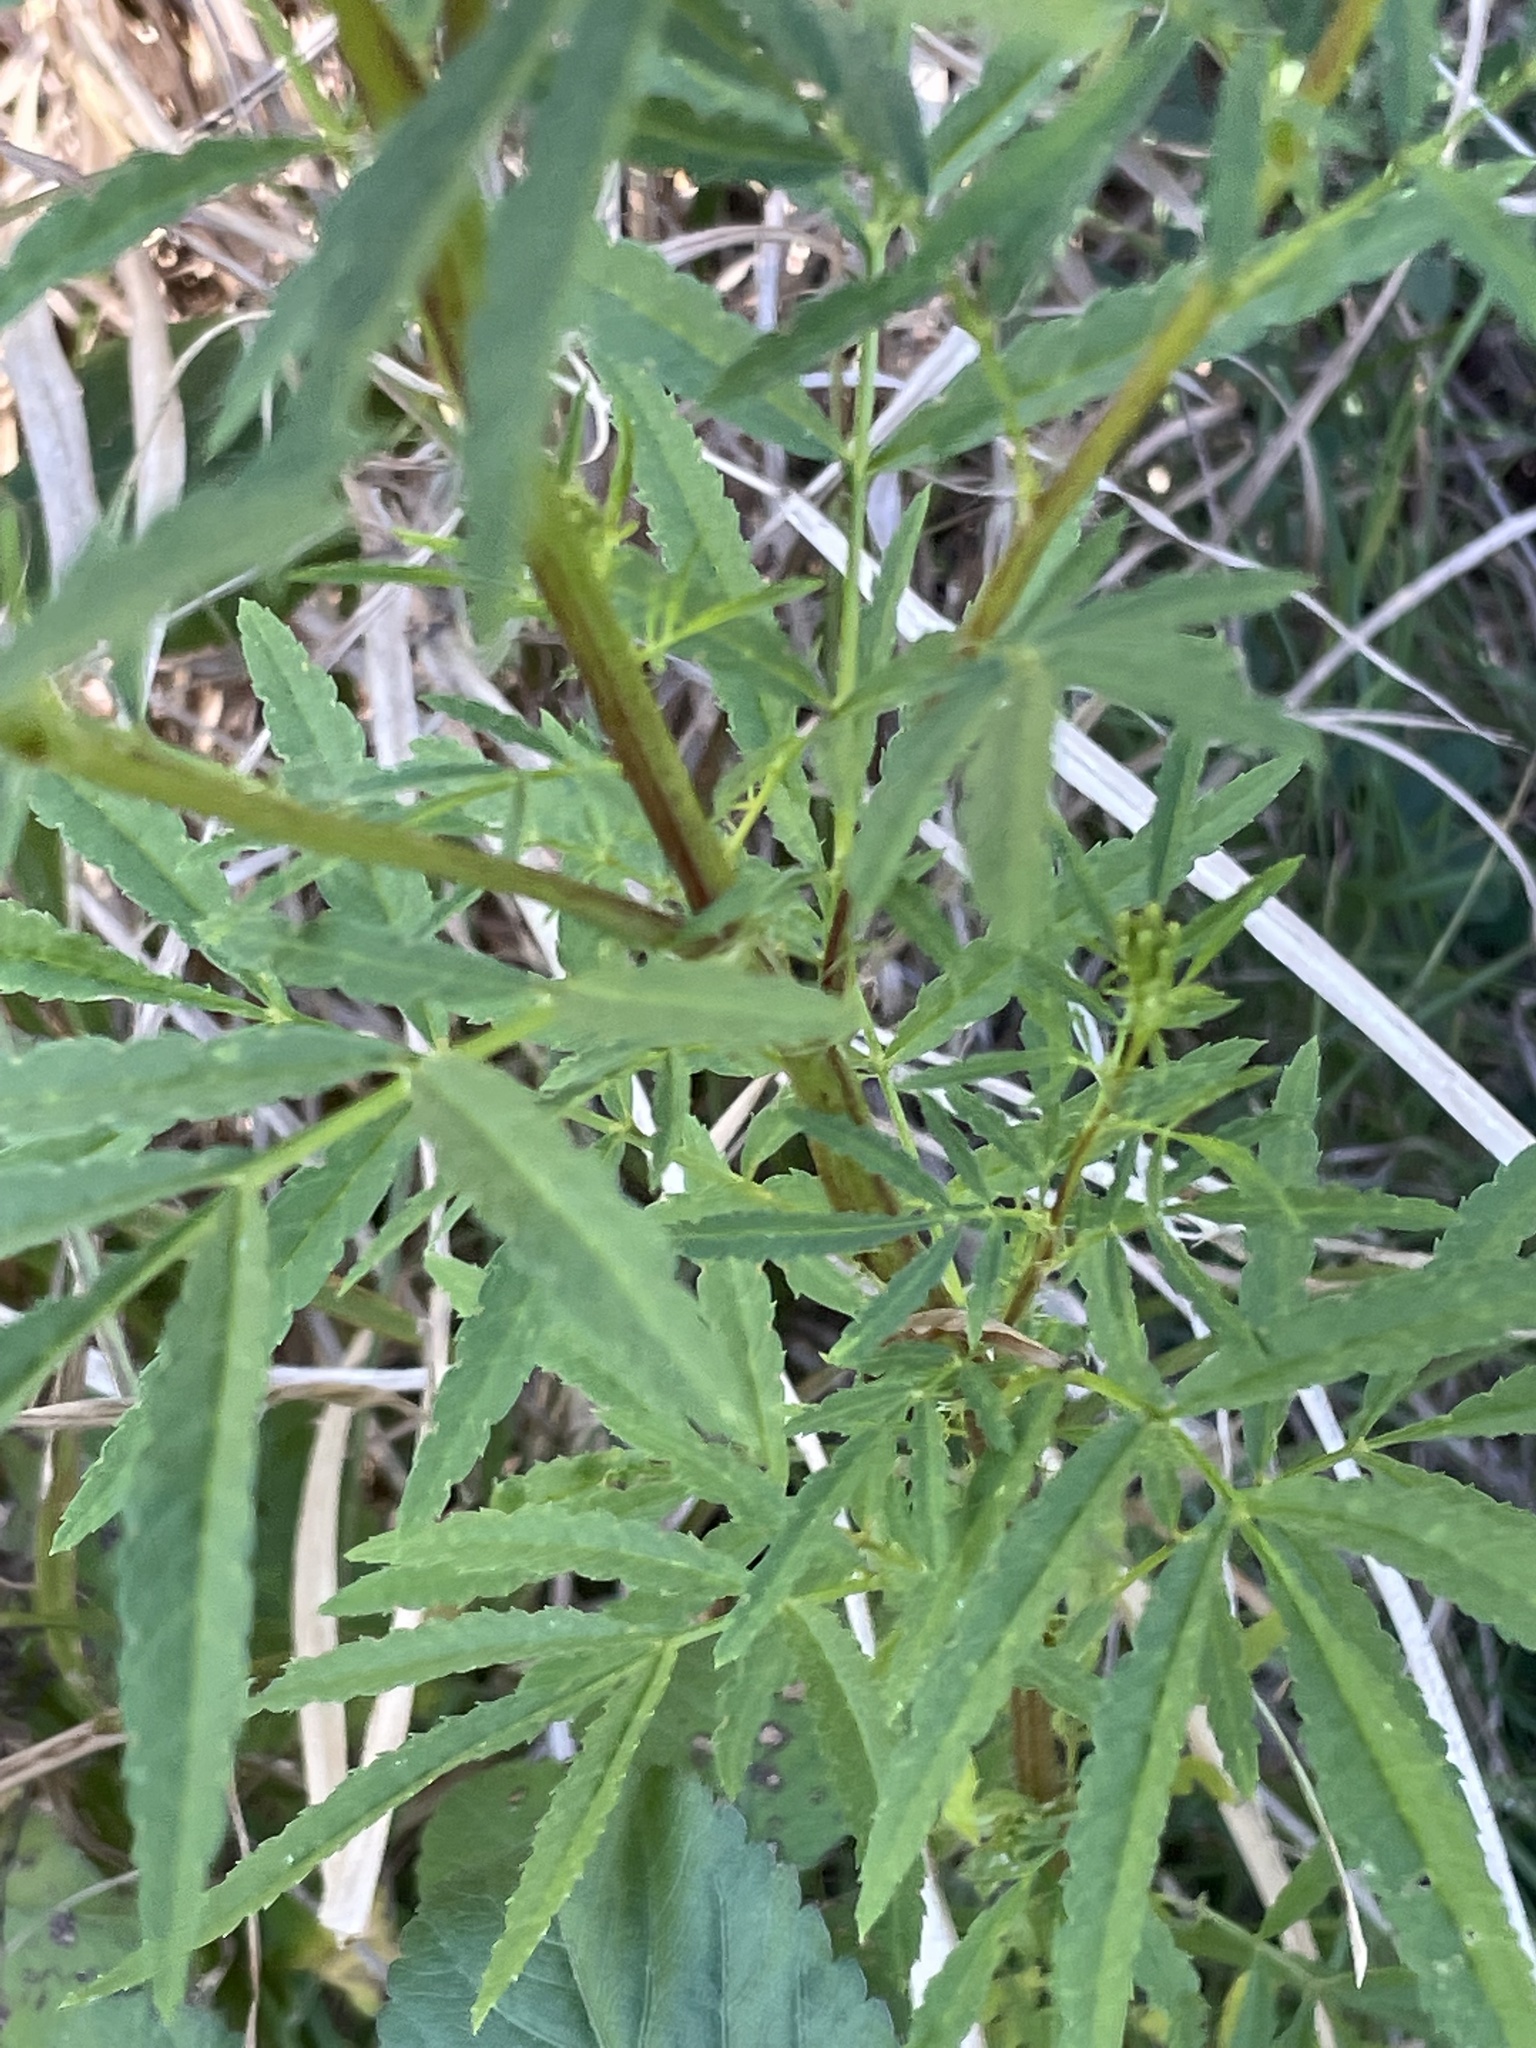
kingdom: Plantae
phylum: Tracheophyta
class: Magnoliopsida
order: Asterales
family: Asteraceae
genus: Tagetes
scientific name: Tagetes minuta
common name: Muster john henry
